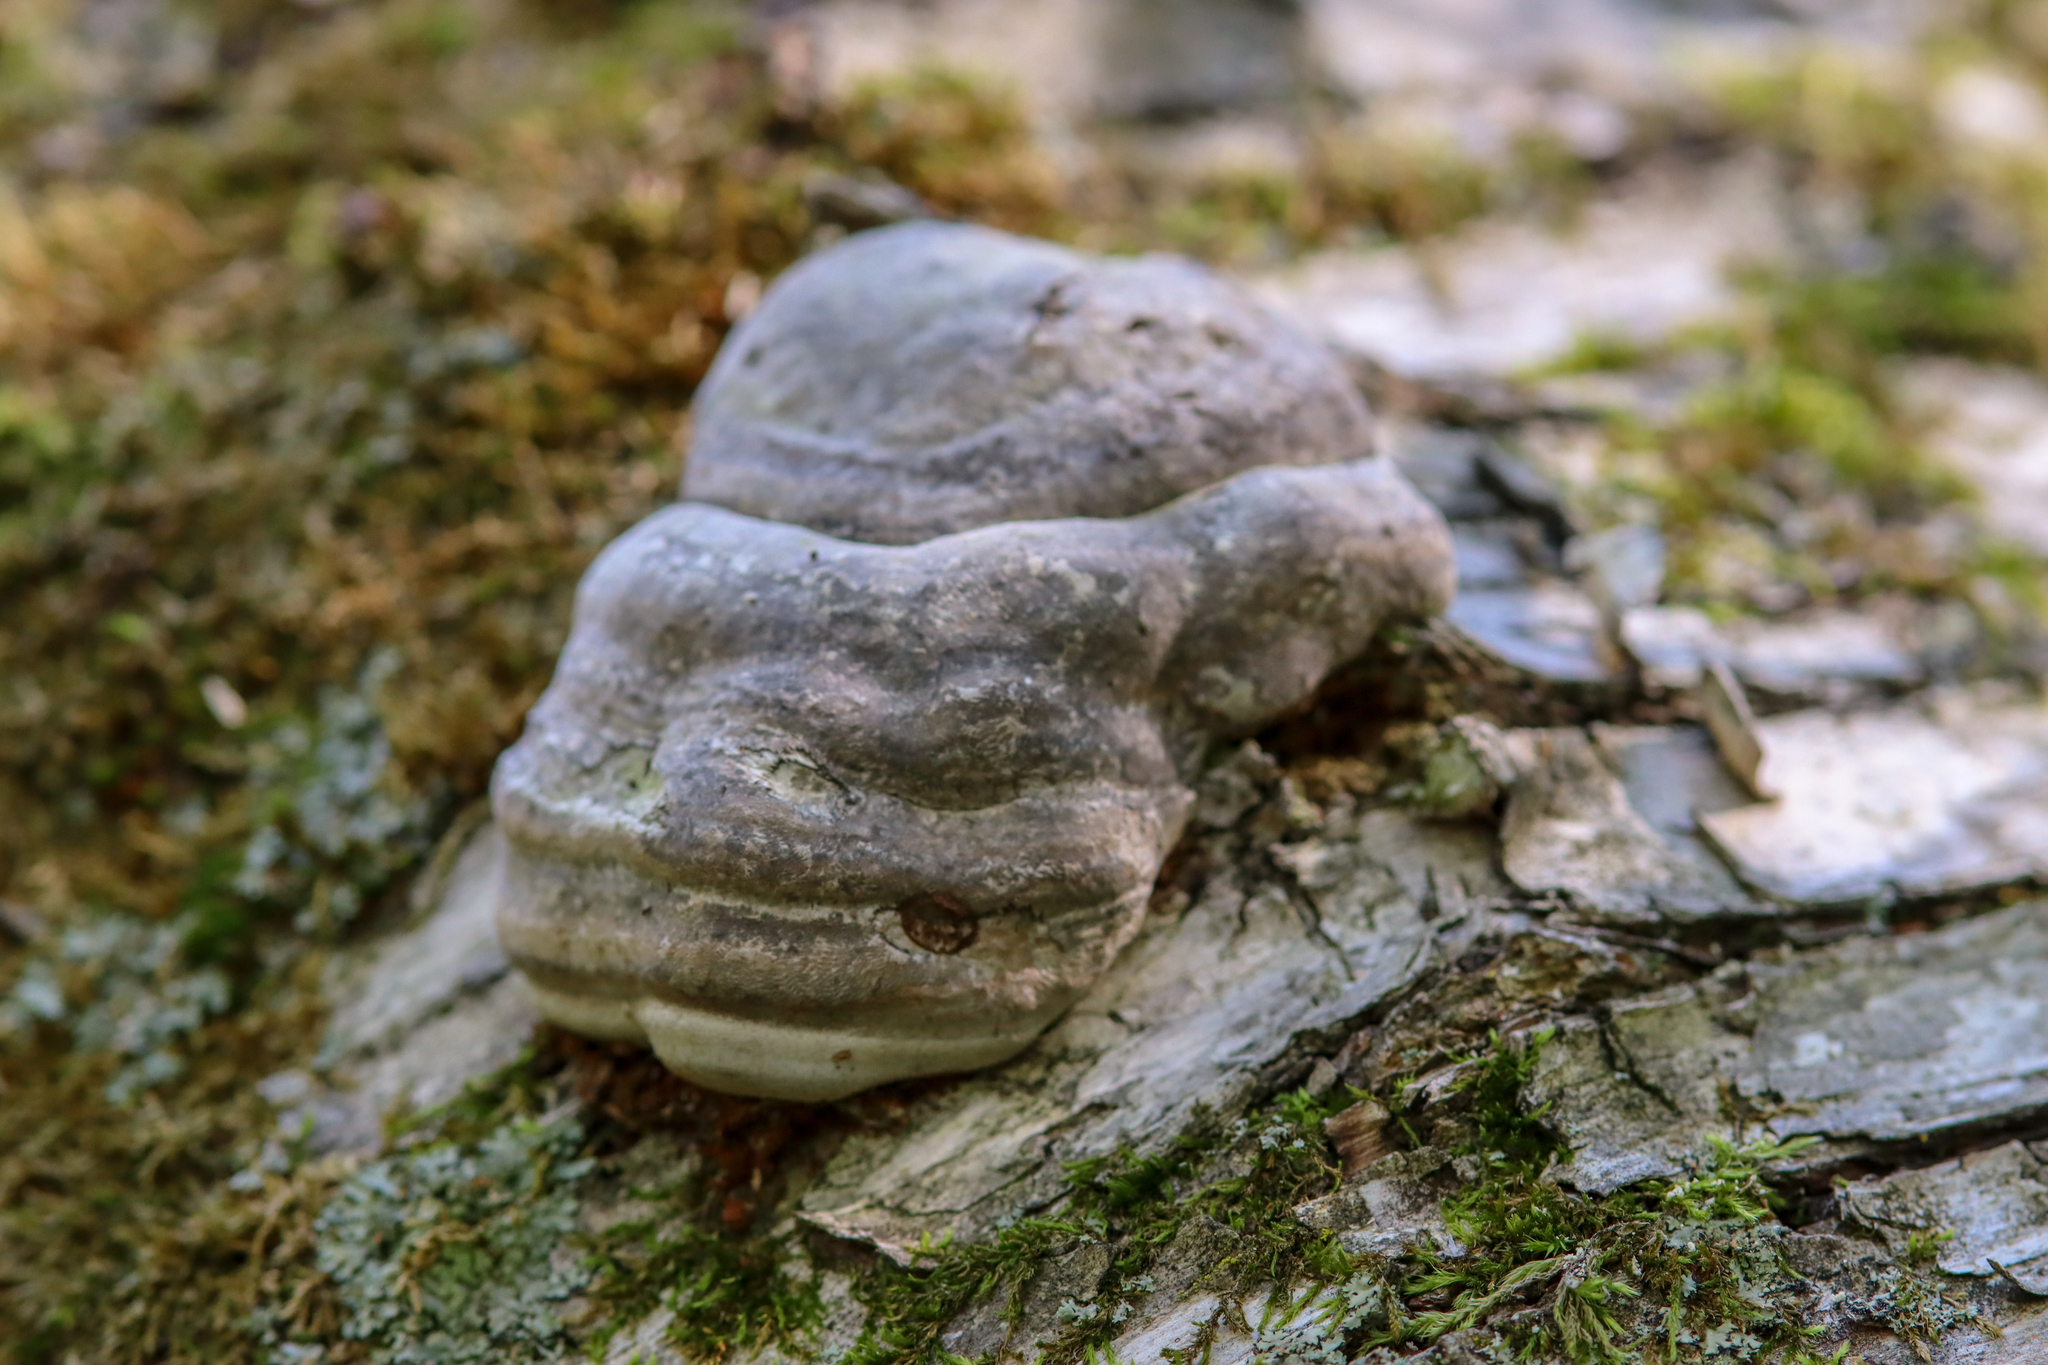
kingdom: Fungi
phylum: Basidiomycota
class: Agaricomycetes
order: Polyporales
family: Polyporaceae
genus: Fomes
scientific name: Fomes fomentarius
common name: Hoof fungus
